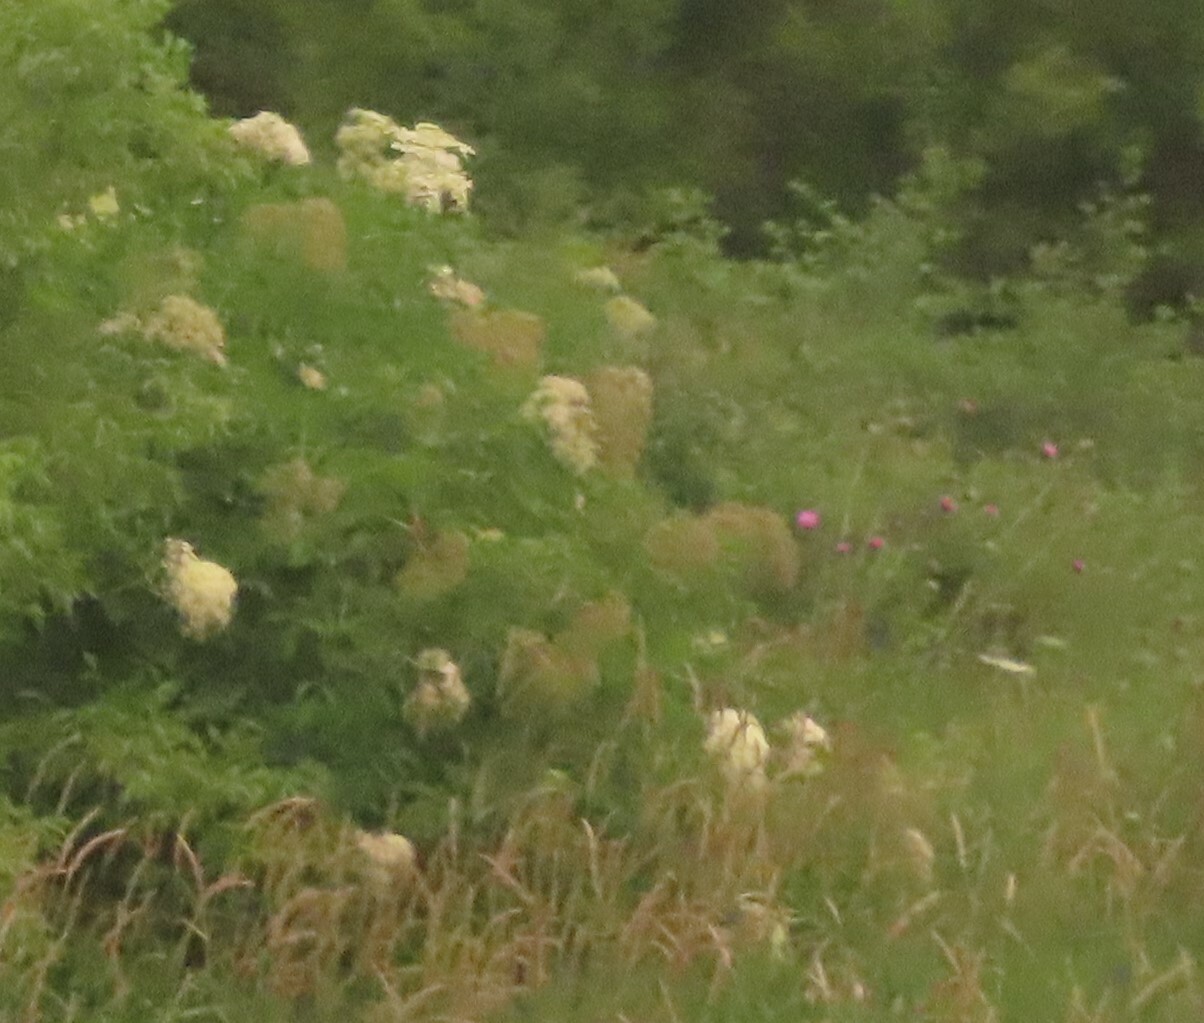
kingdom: Plantae
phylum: Tracheophyta
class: Magnoliopsida
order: Dipsacales
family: Viburnaceae
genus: Sambucus
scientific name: Sambucus canadensis
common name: American elder
